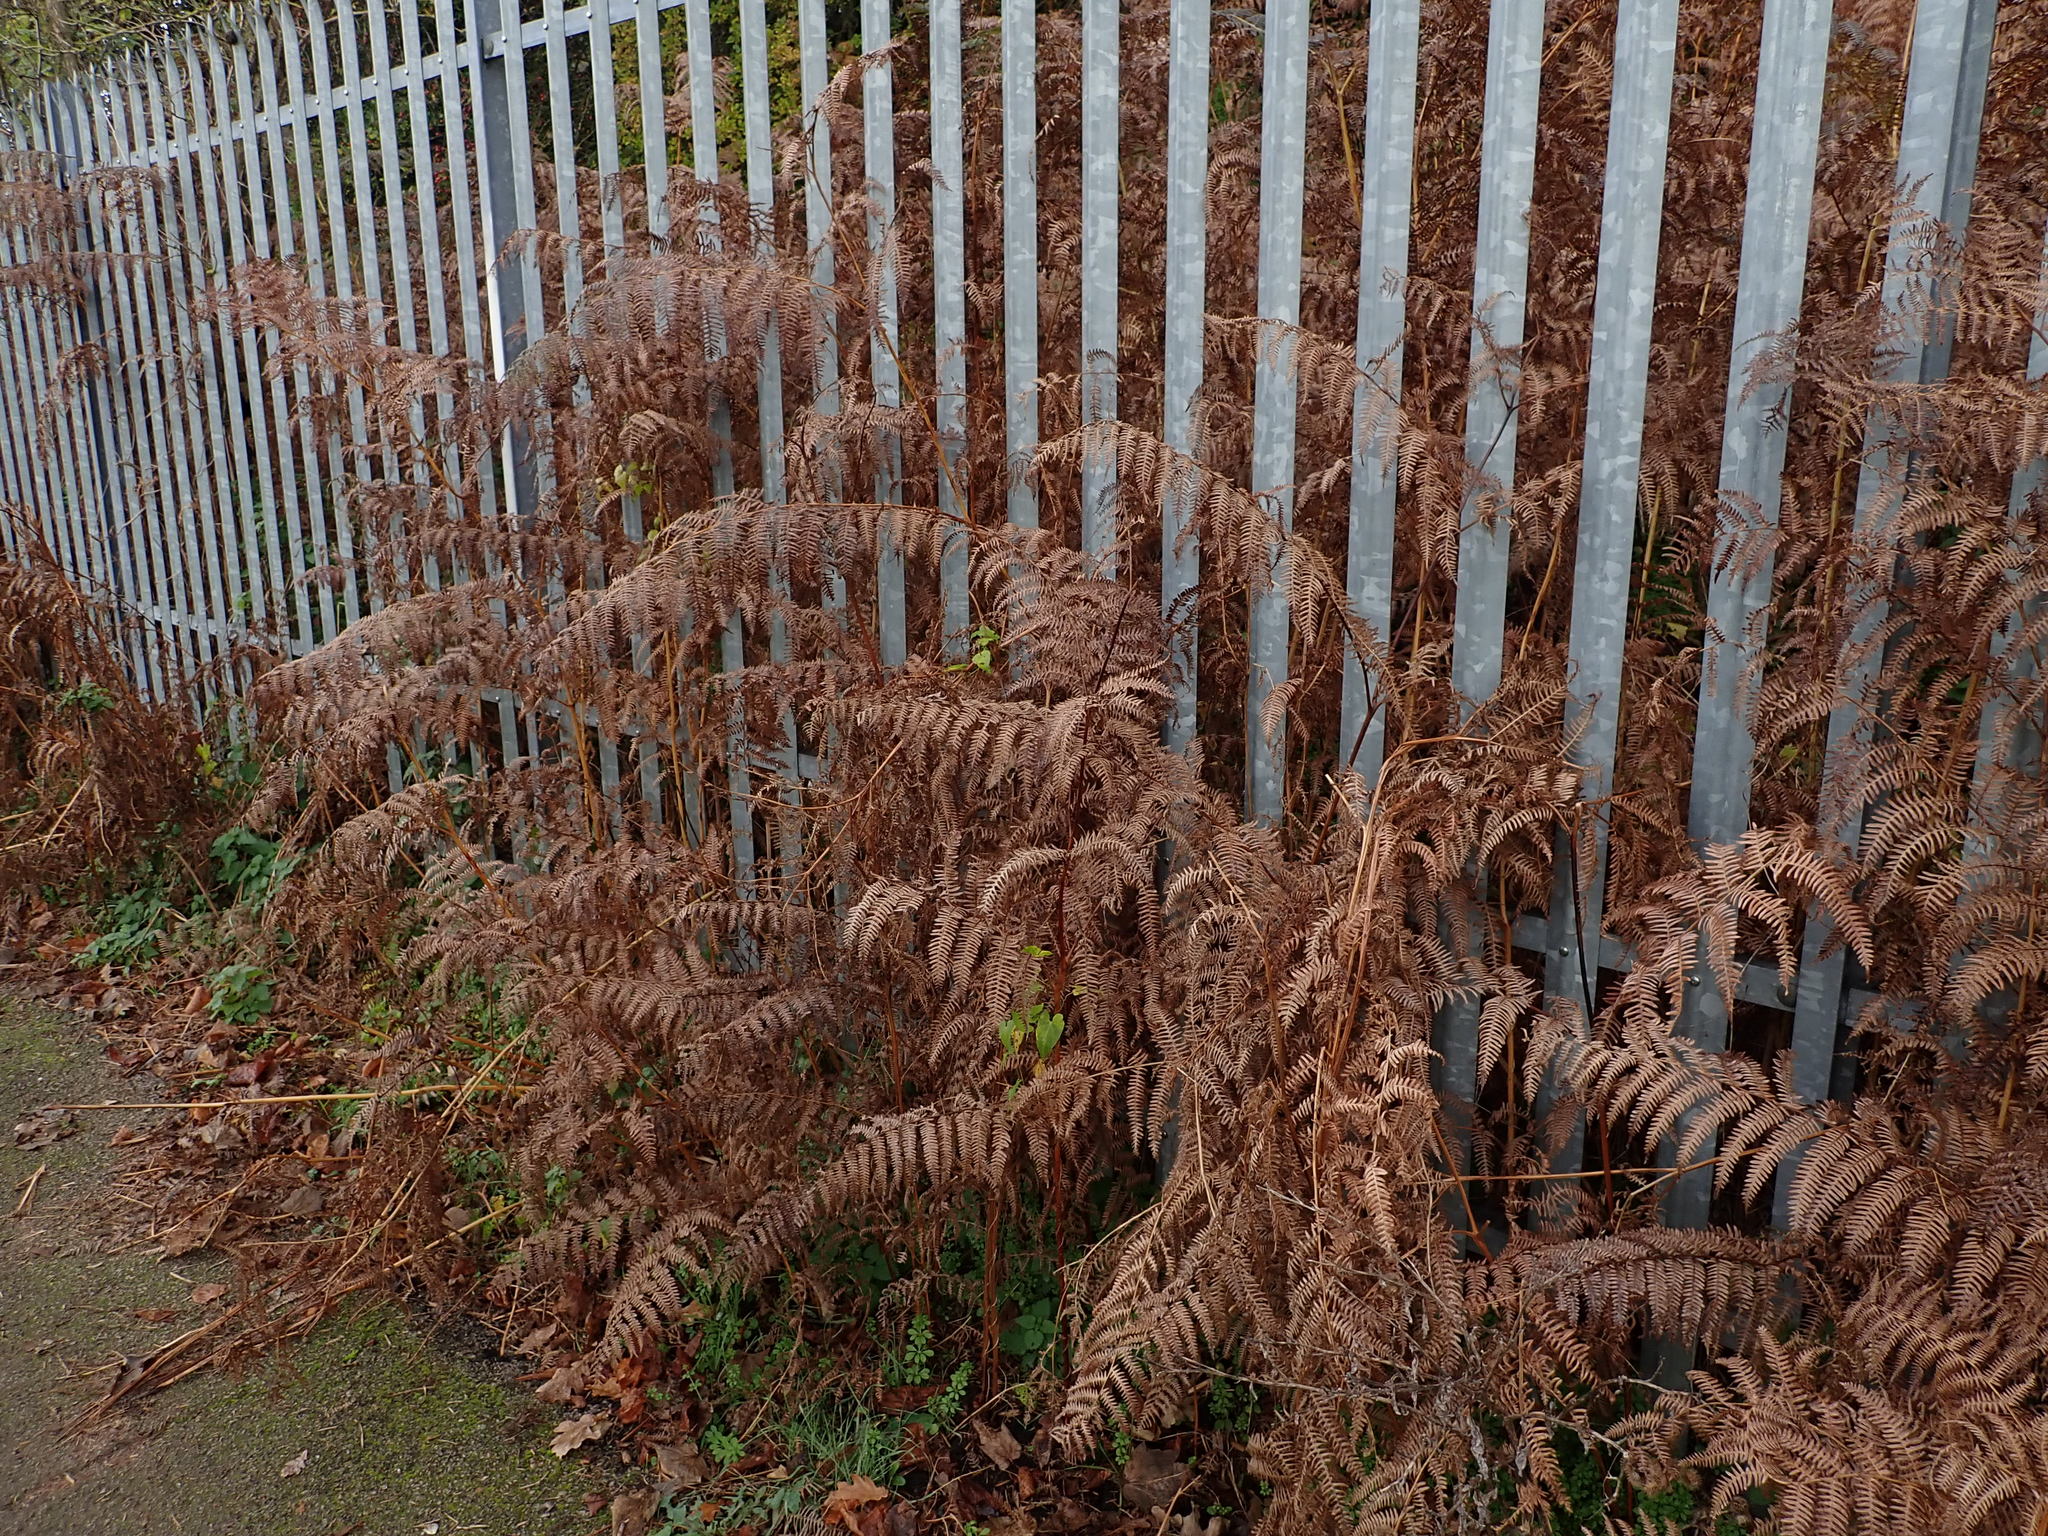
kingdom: Plantae
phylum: Tracheophyta
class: Polypodiopsida
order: Polypodiales
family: Dennstaedtiaceae
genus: Pteridium
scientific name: Pteridium aquilinum
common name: Bracken
